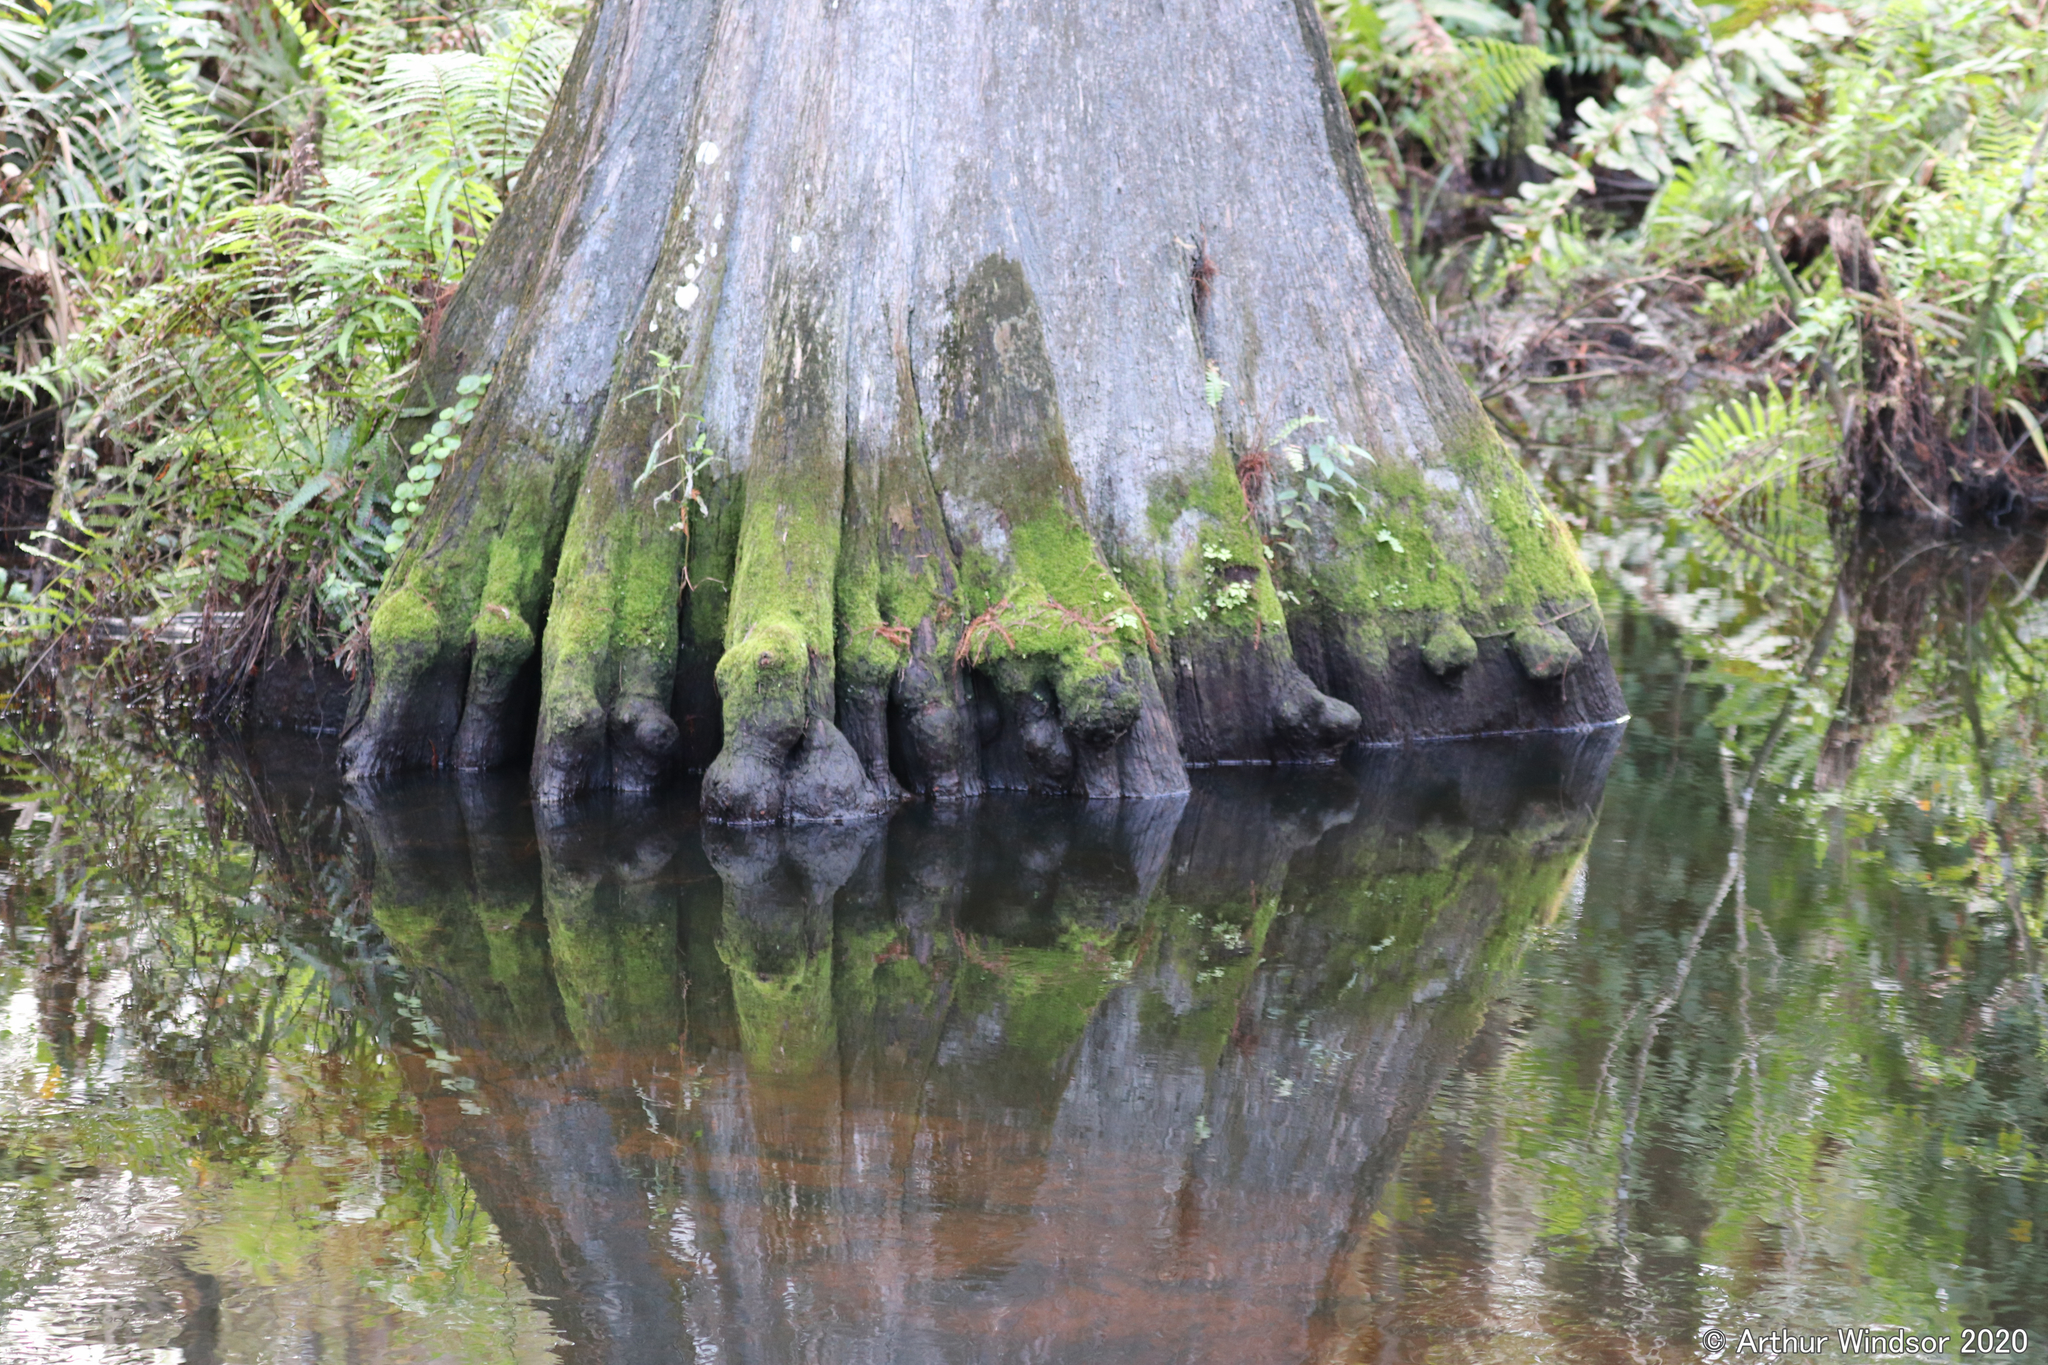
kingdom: Plantae
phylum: Tracheophyta
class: Pinopsida
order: Pinales
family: Cupressaceae
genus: Taxodium
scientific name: Taxodium distichum
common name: Bald cypress
